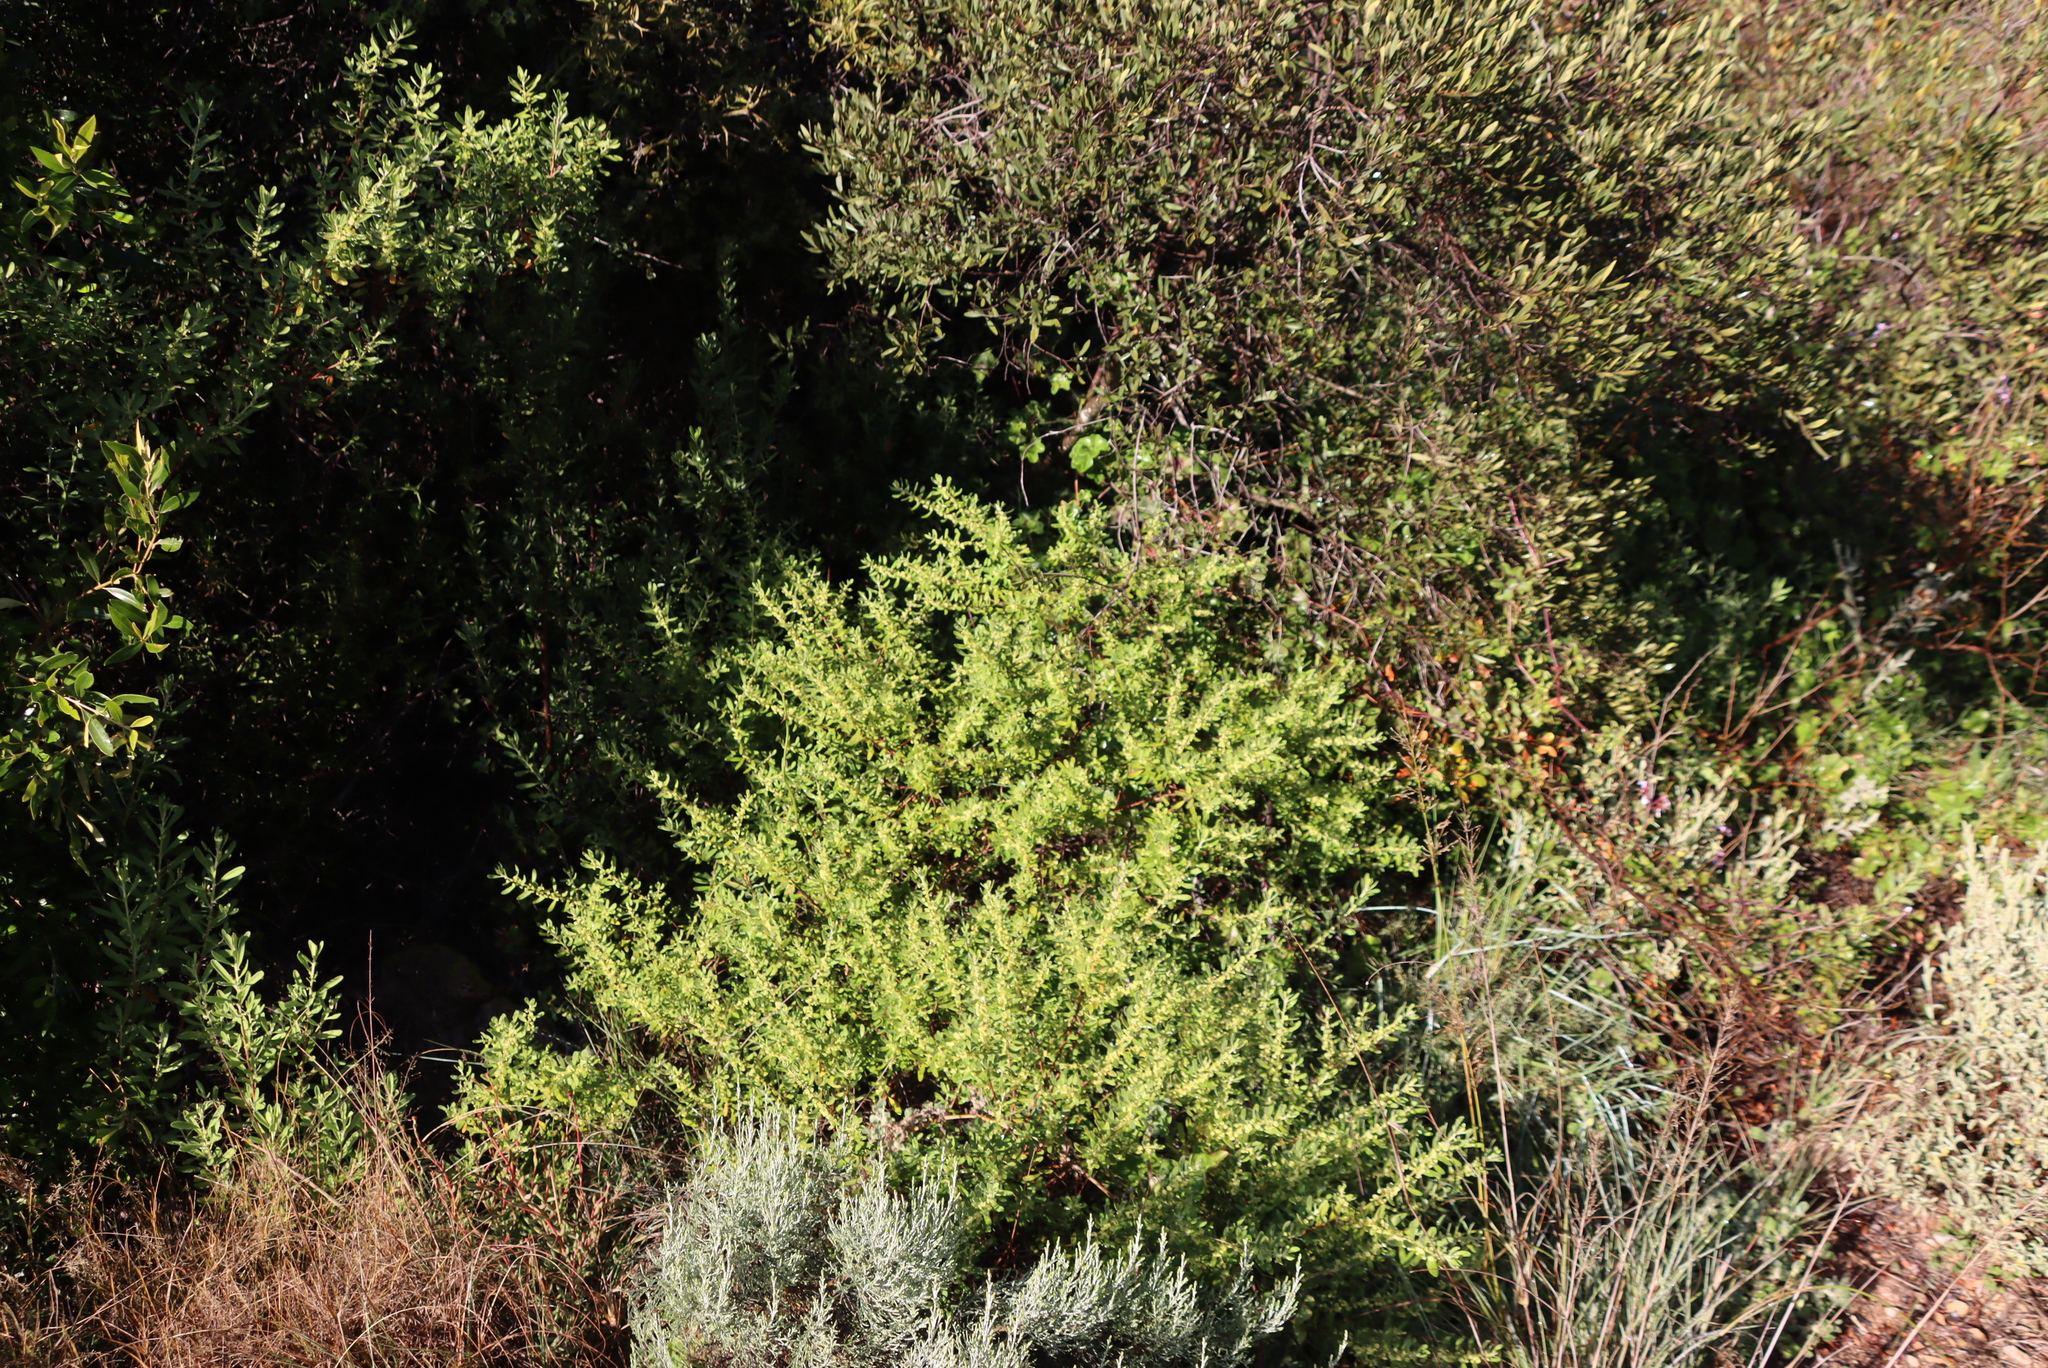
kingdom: Plantae
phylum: Tracheophyta
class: Magnoliopsida
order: Malpighiales
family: Peraceae
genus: Clutia
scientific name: Clutia daphnoides
